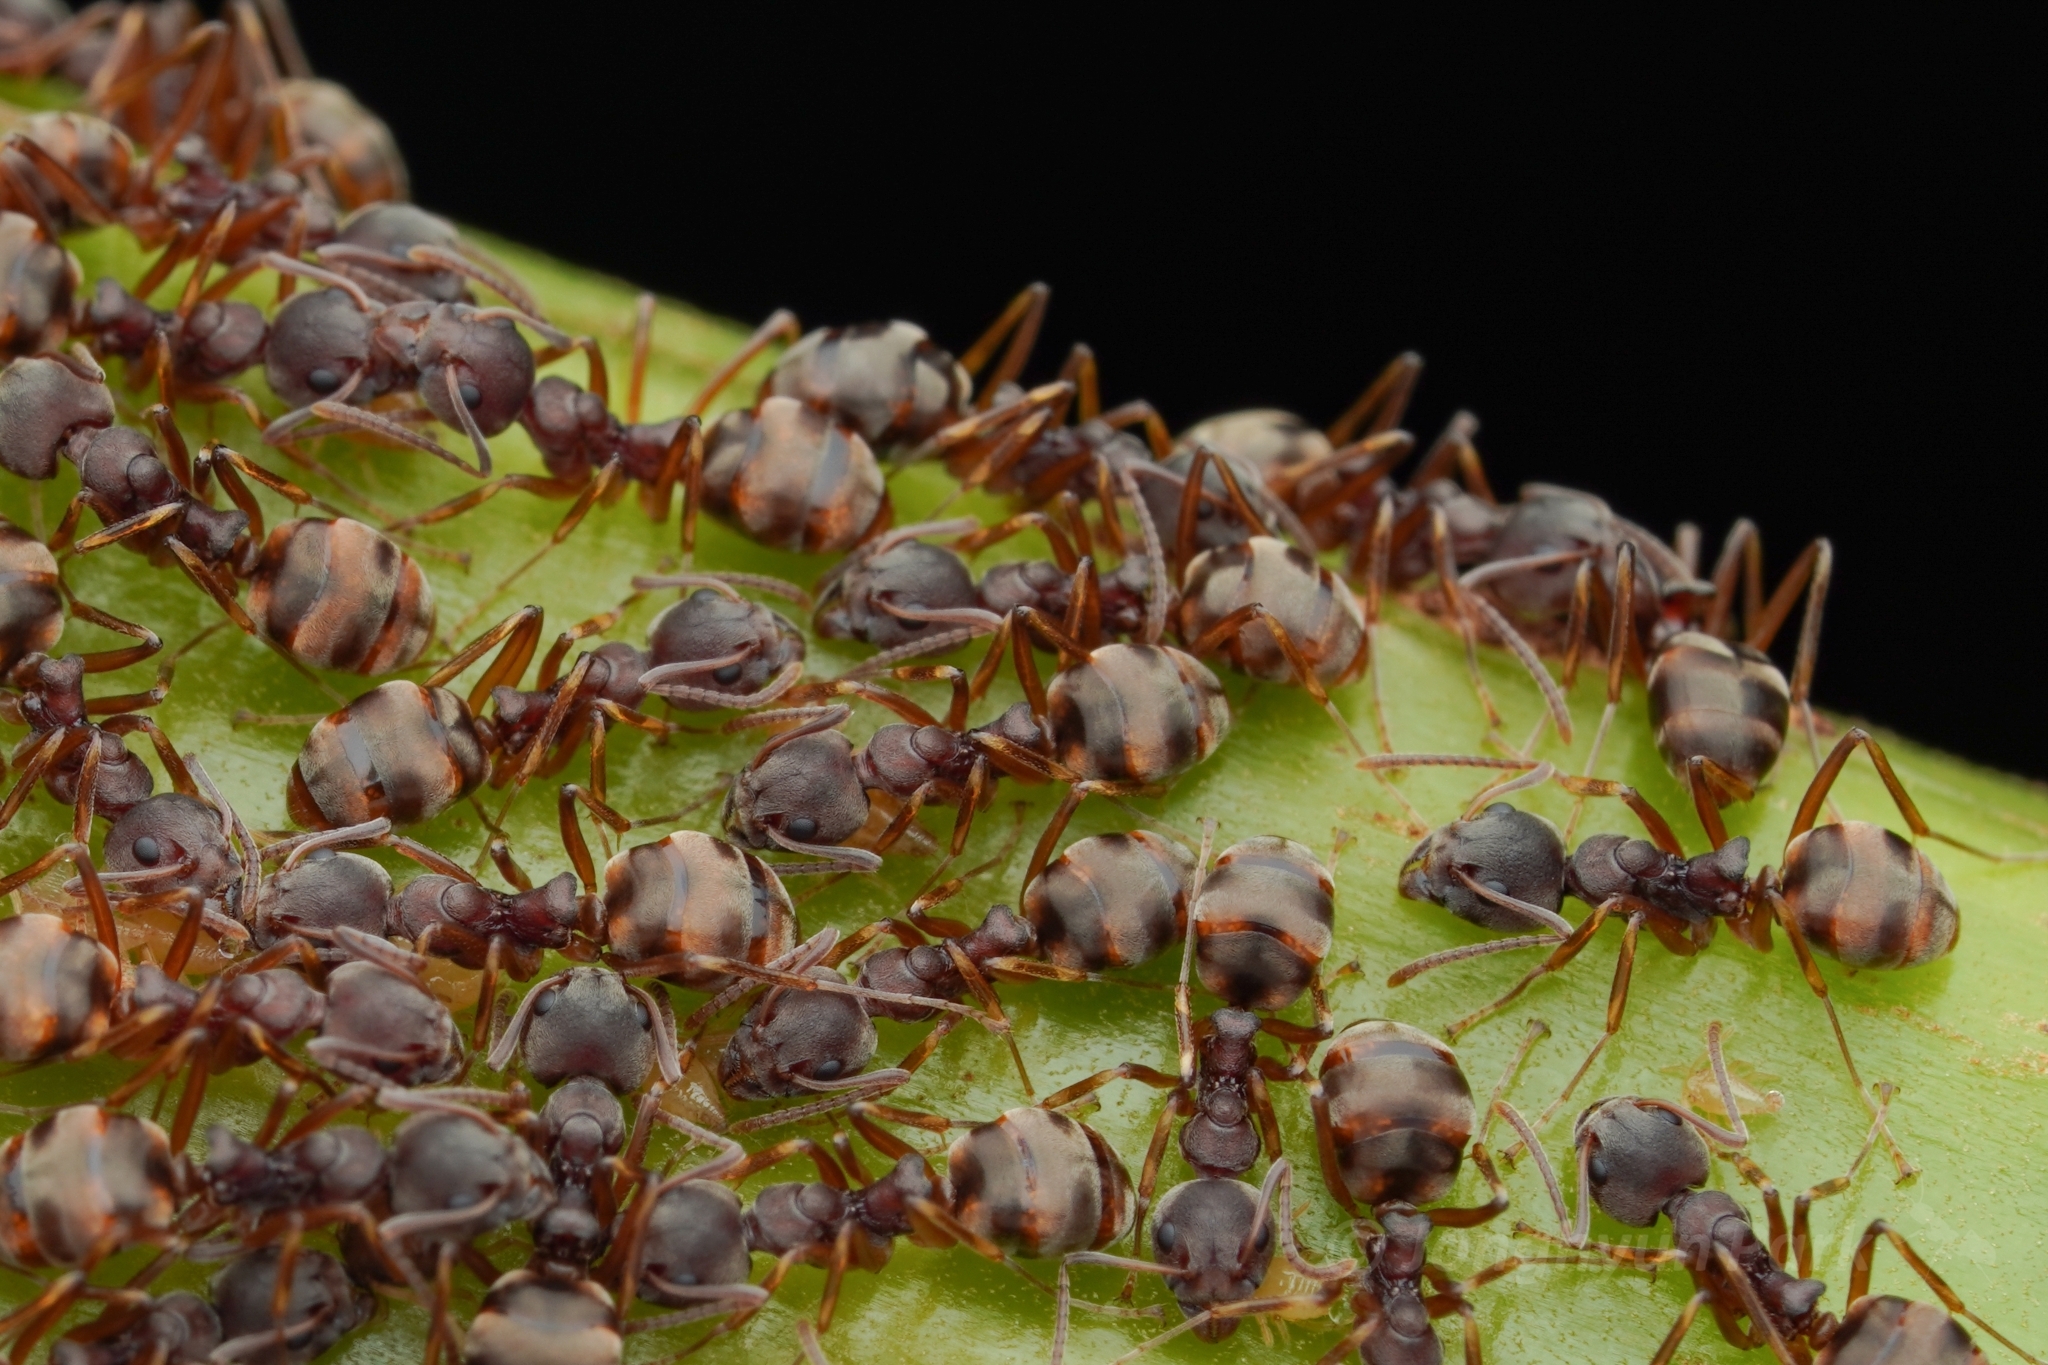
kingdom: Animalia
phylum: Arthropoda
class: Insecta
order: Hymenoptera
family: Formicidae
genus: Dolichoderus
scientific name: Dolichoderus
